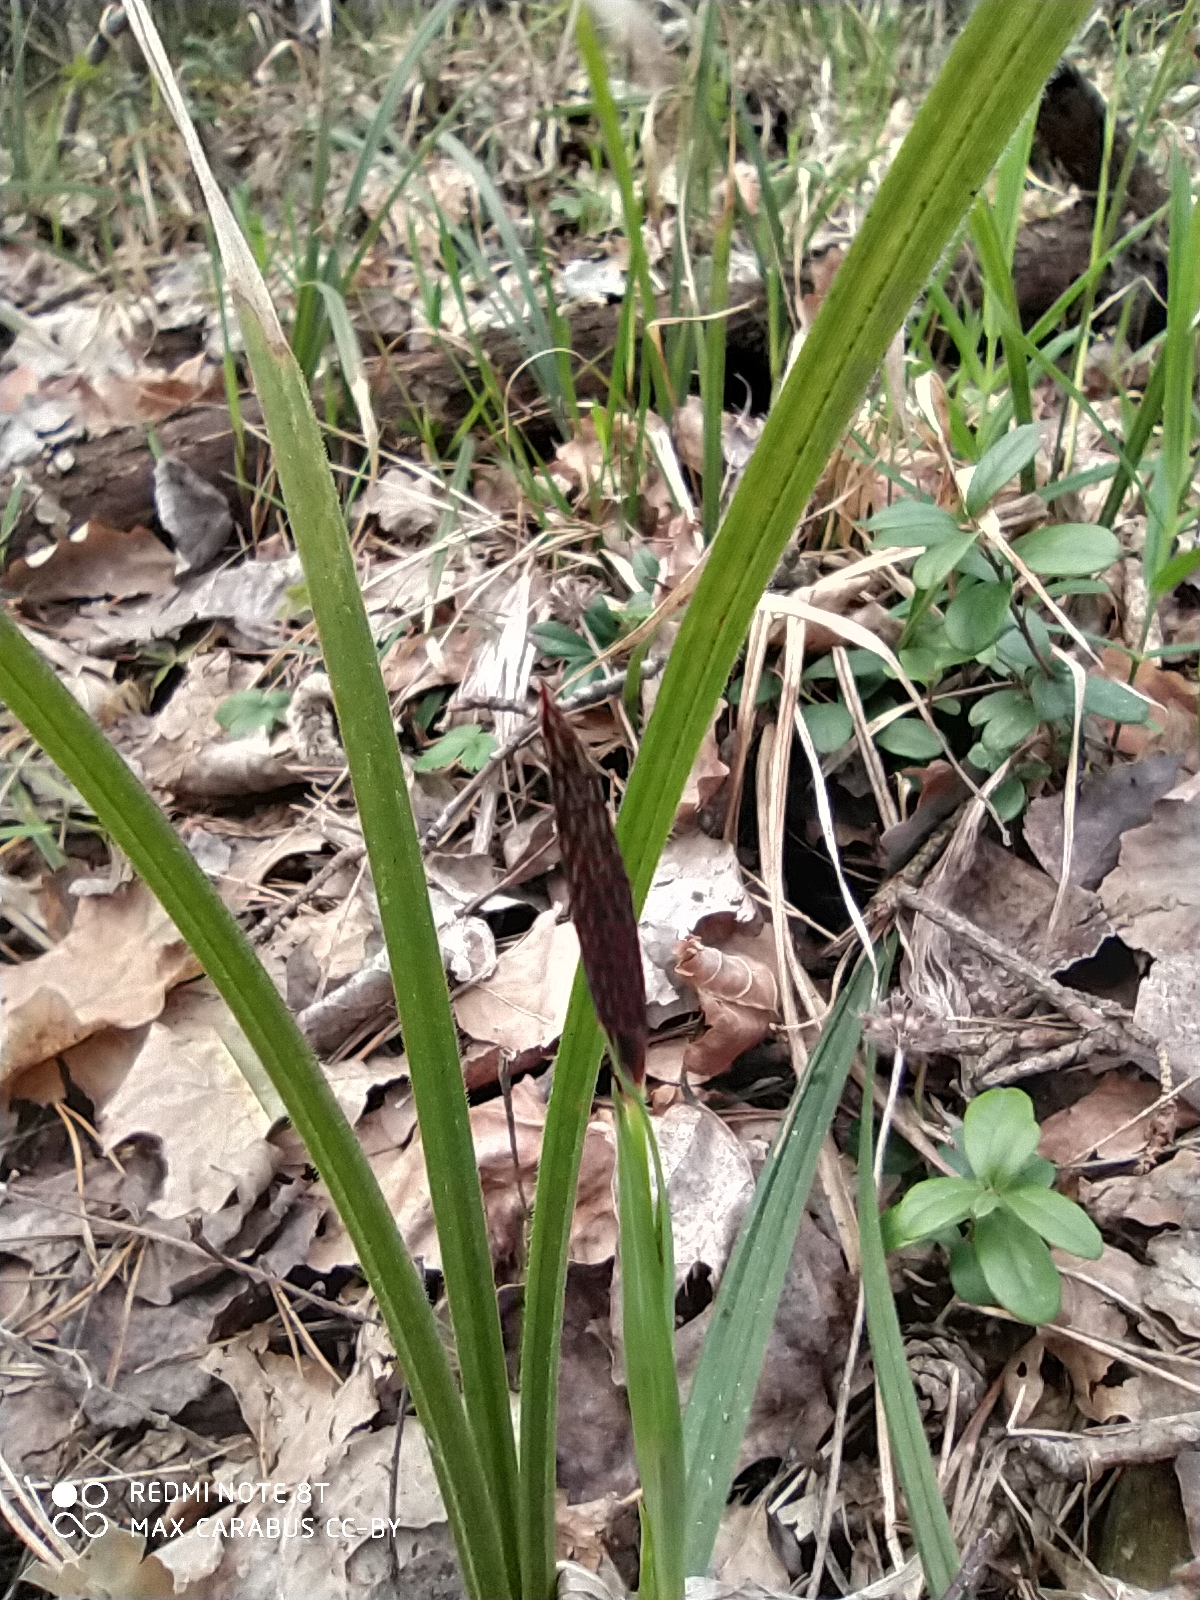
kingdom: Plantae
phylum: Tracheophyta
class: Liliopsida
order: Poales
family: Cyperaceae
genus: Carex
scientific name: Carex pilosa
